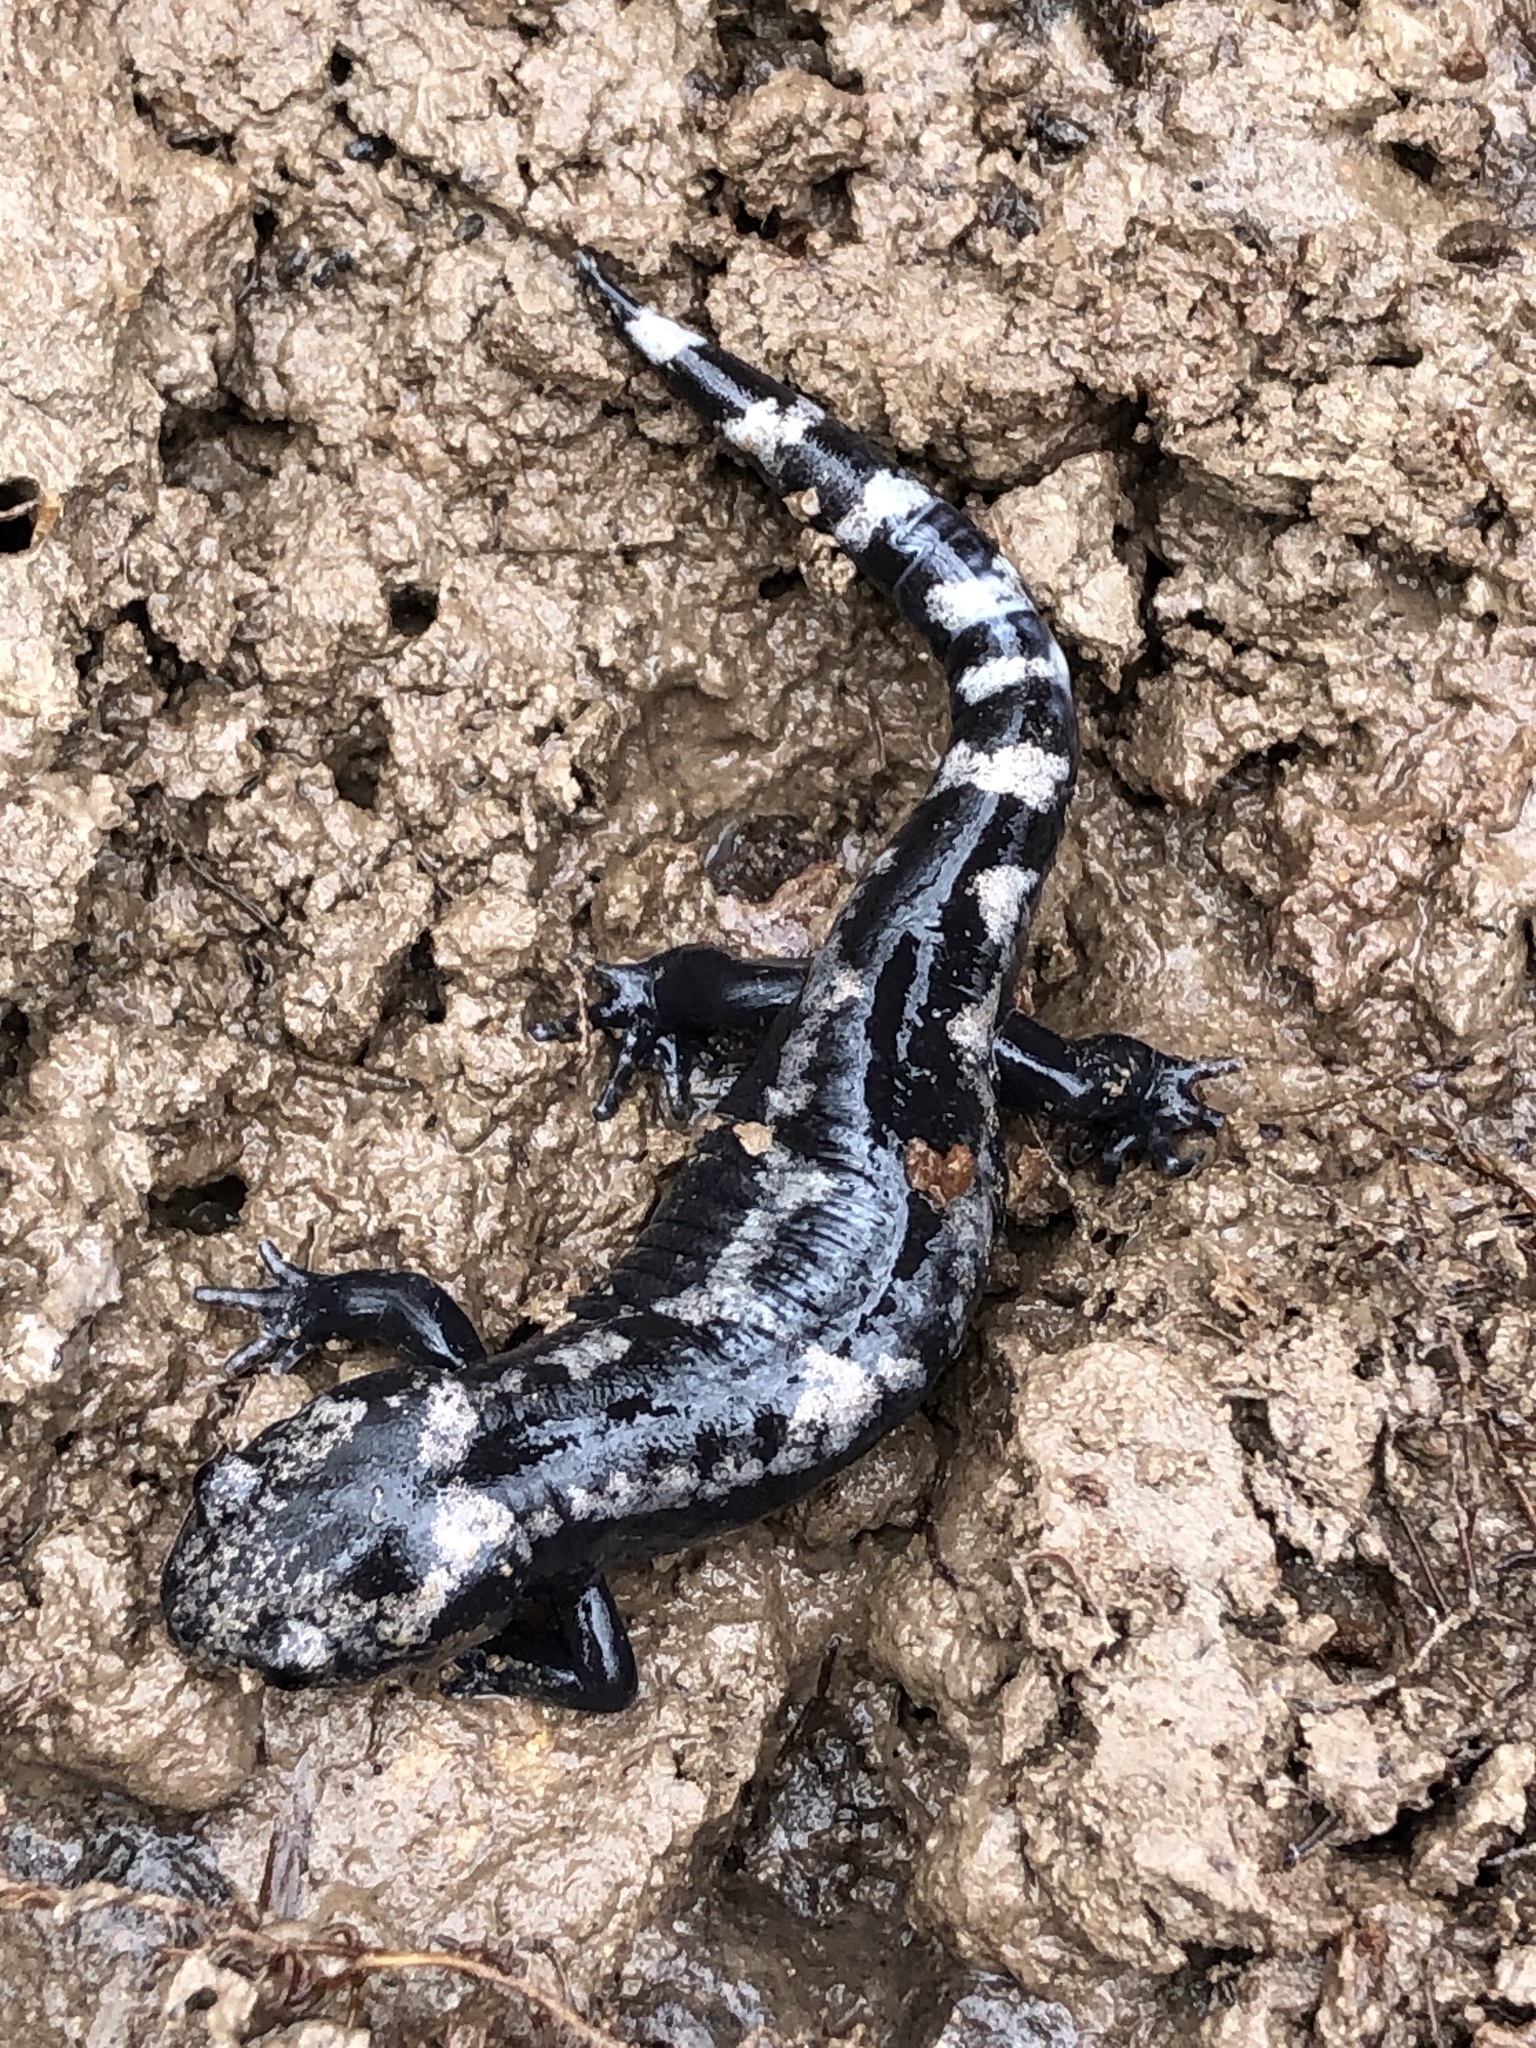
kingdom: Animalia
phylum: Chordata
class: Amphibia
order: Caudata
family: Ambystomatidae
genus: Ambystoma
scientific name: Ambystoma opacum
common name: Marbled salamander
